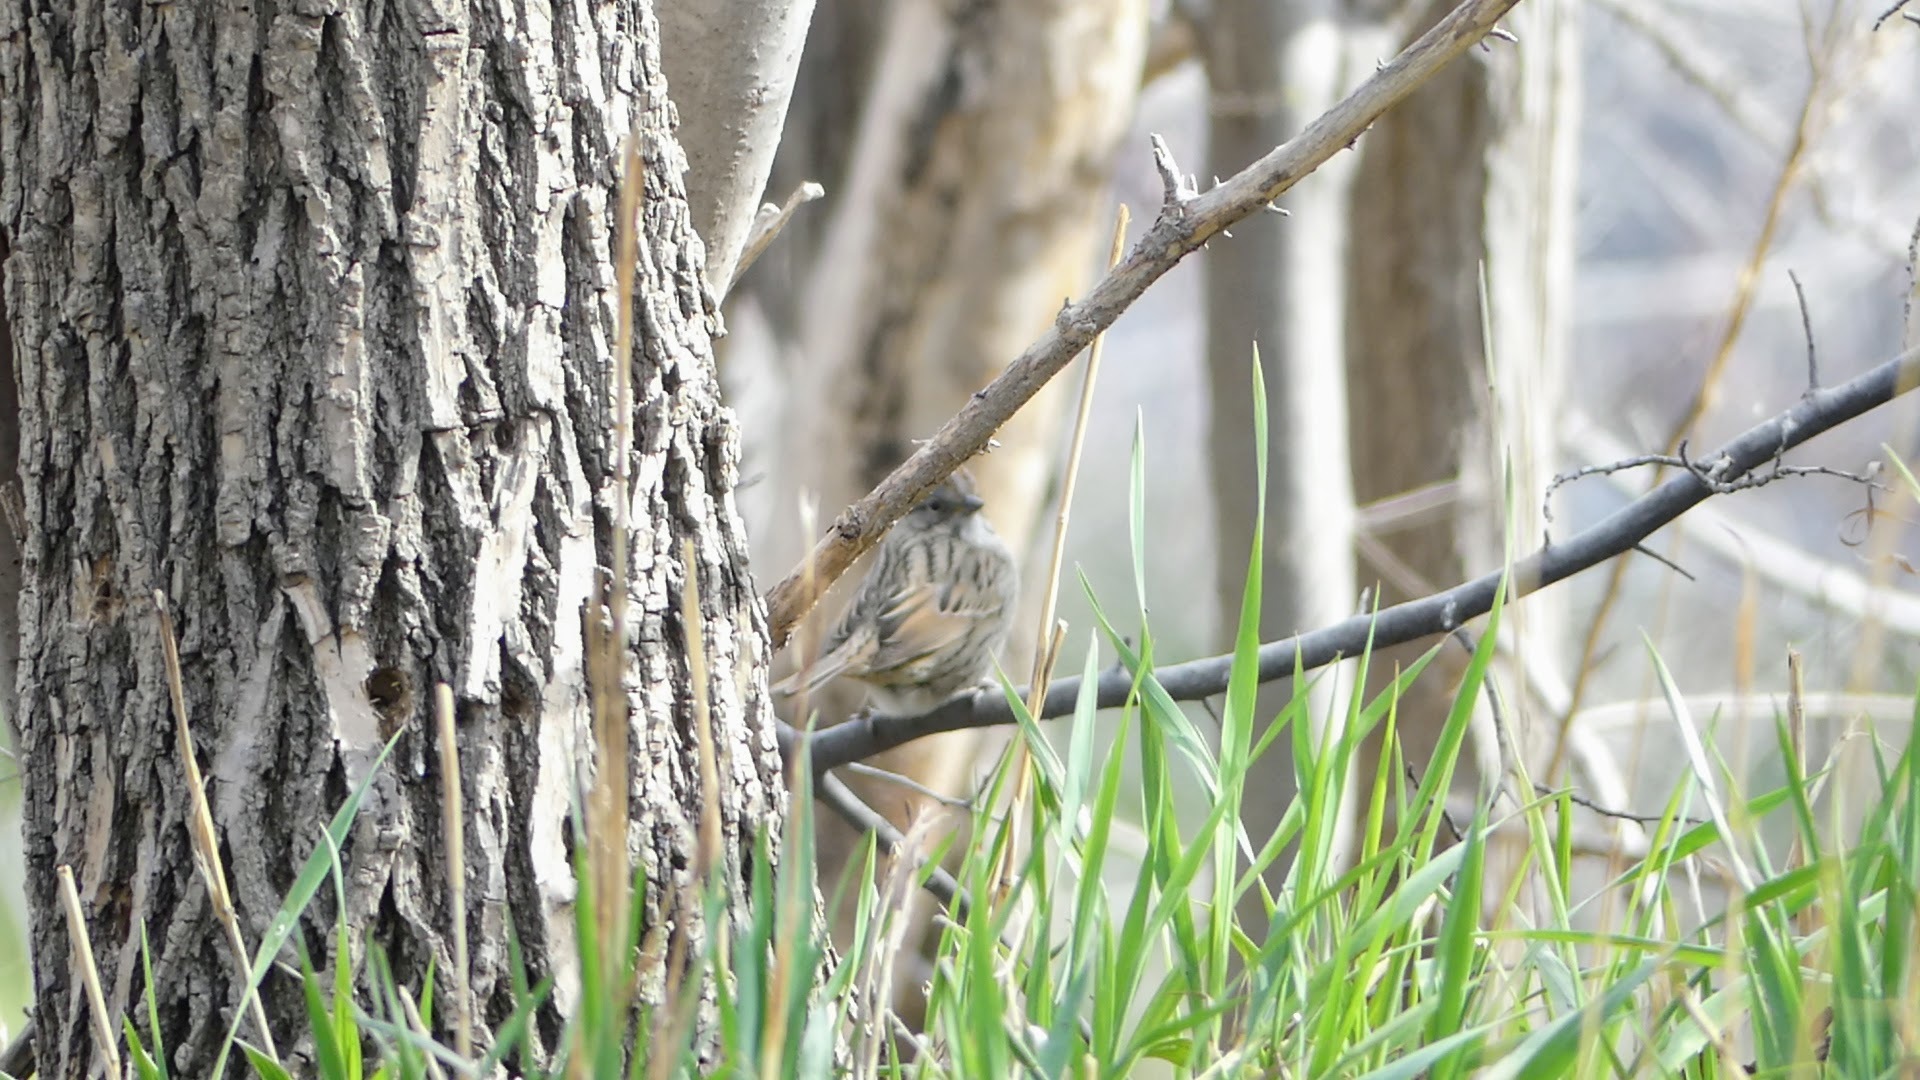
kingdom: Animalia
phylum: Chordata
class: Aves
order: Passeriformes
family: Passerellidae
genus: Melospiza
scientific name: Melospiza lincolnii
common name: Lincoln's sparrow
